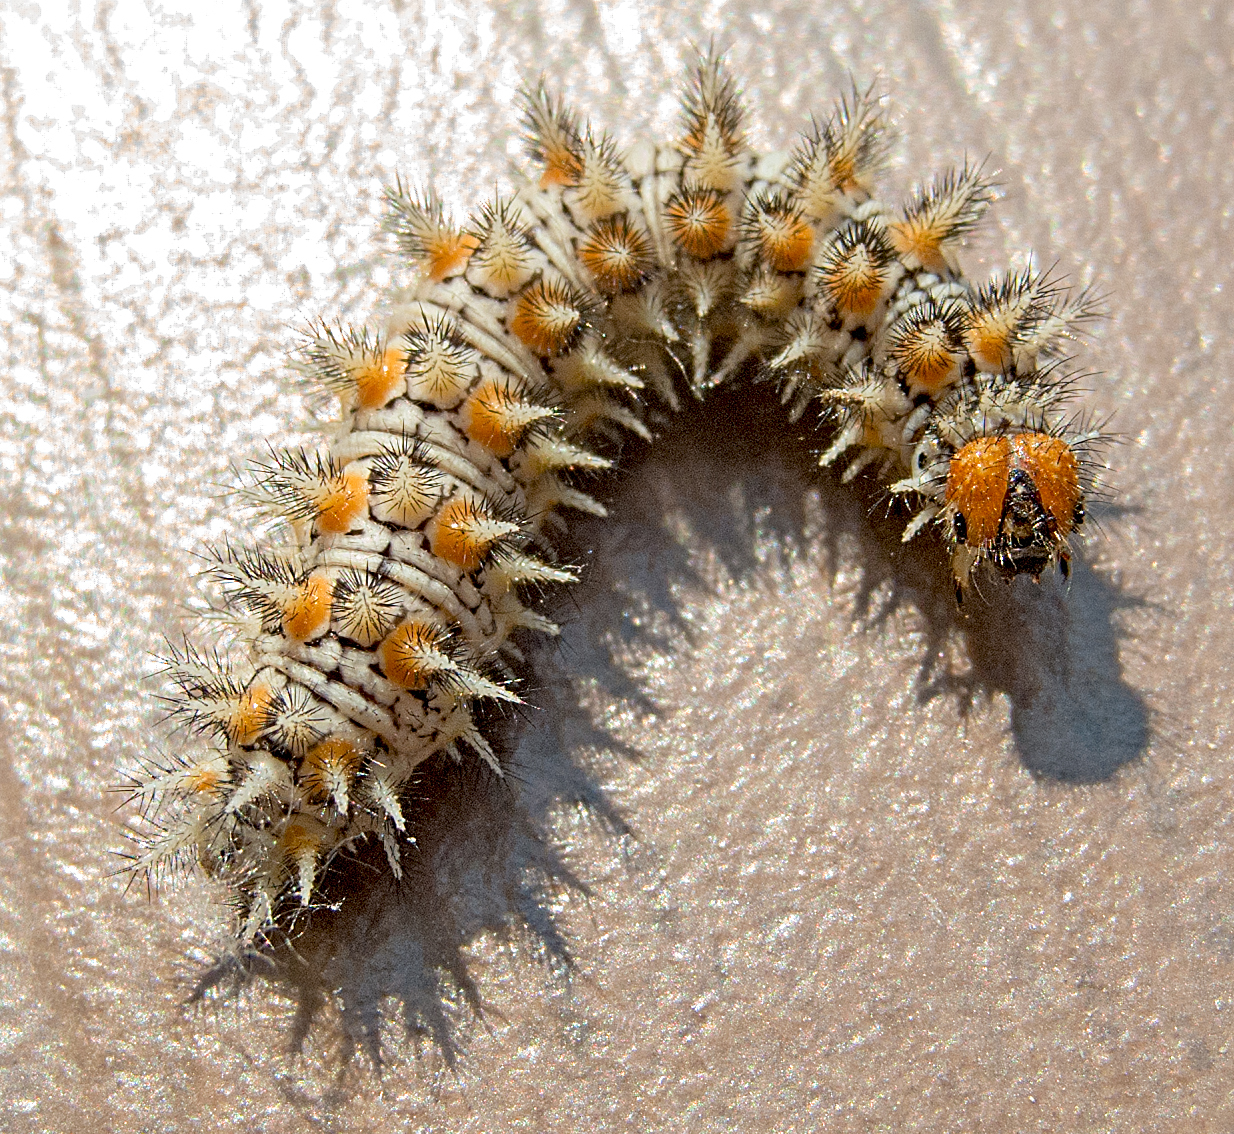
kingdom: Animalia
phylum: Arthropoda
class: Insecta
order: Lepidoptera
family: Nymphalidae
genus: Melitaea
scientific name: Melitaea didyma
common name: Spotted fritillary
